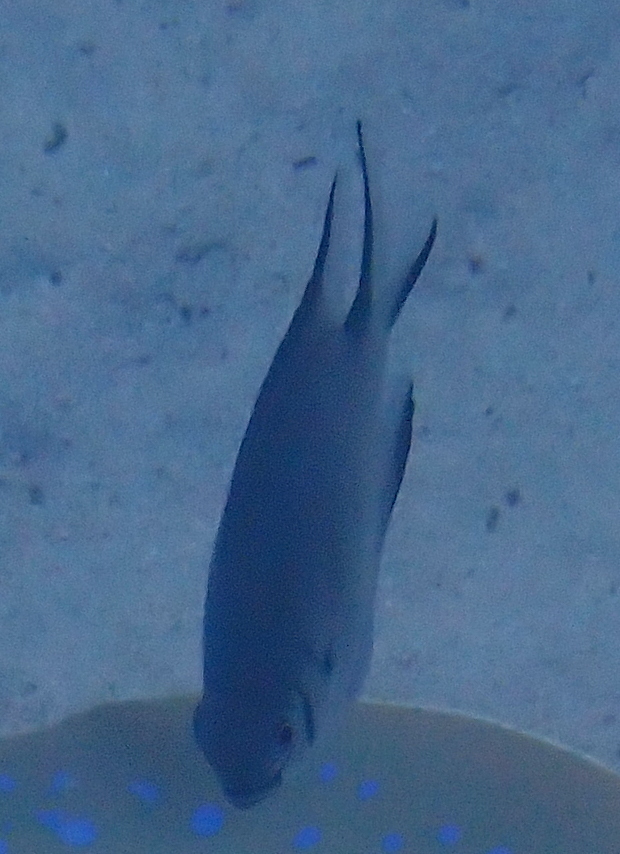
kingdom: Animalia
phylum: Chordata
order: Perciformes
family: Pomacentridae
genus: Amblyglyphidodon
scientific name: Amblyglyphidodon indicus
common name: Maldives damselfish
